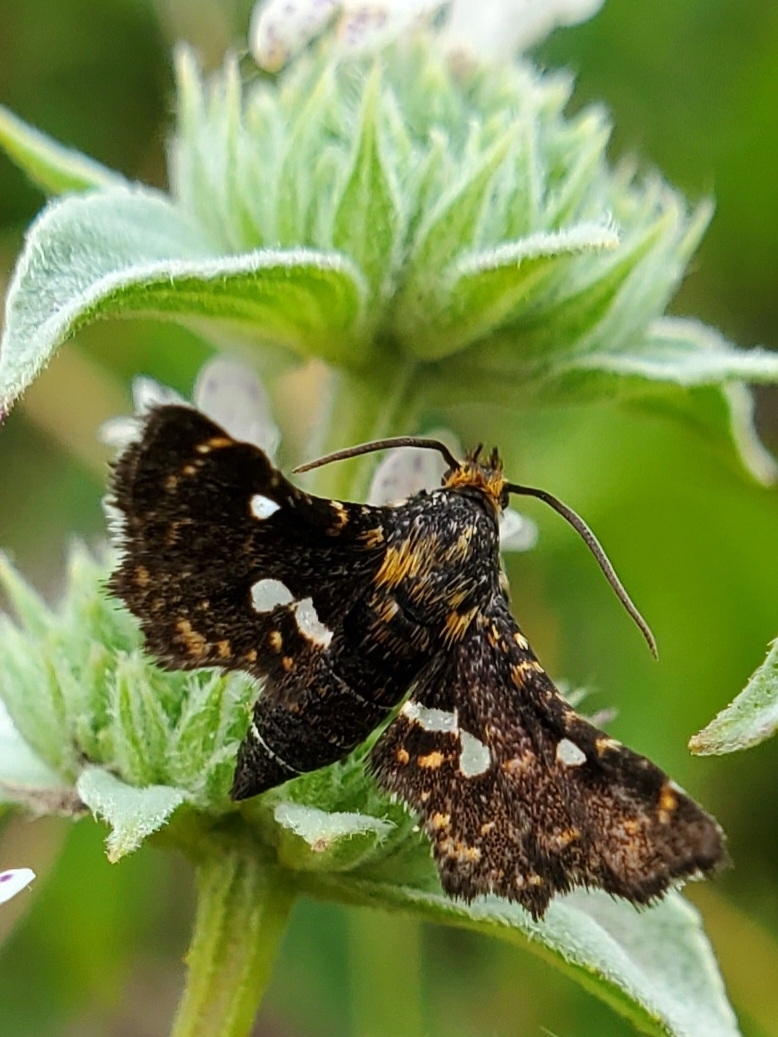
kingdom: Animalia
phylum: Arthropoda
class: Insecta
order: Lepidoptera
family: Thyrididae
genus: Thyris
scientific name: Thyris maculata
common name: Spotted thyris moth
